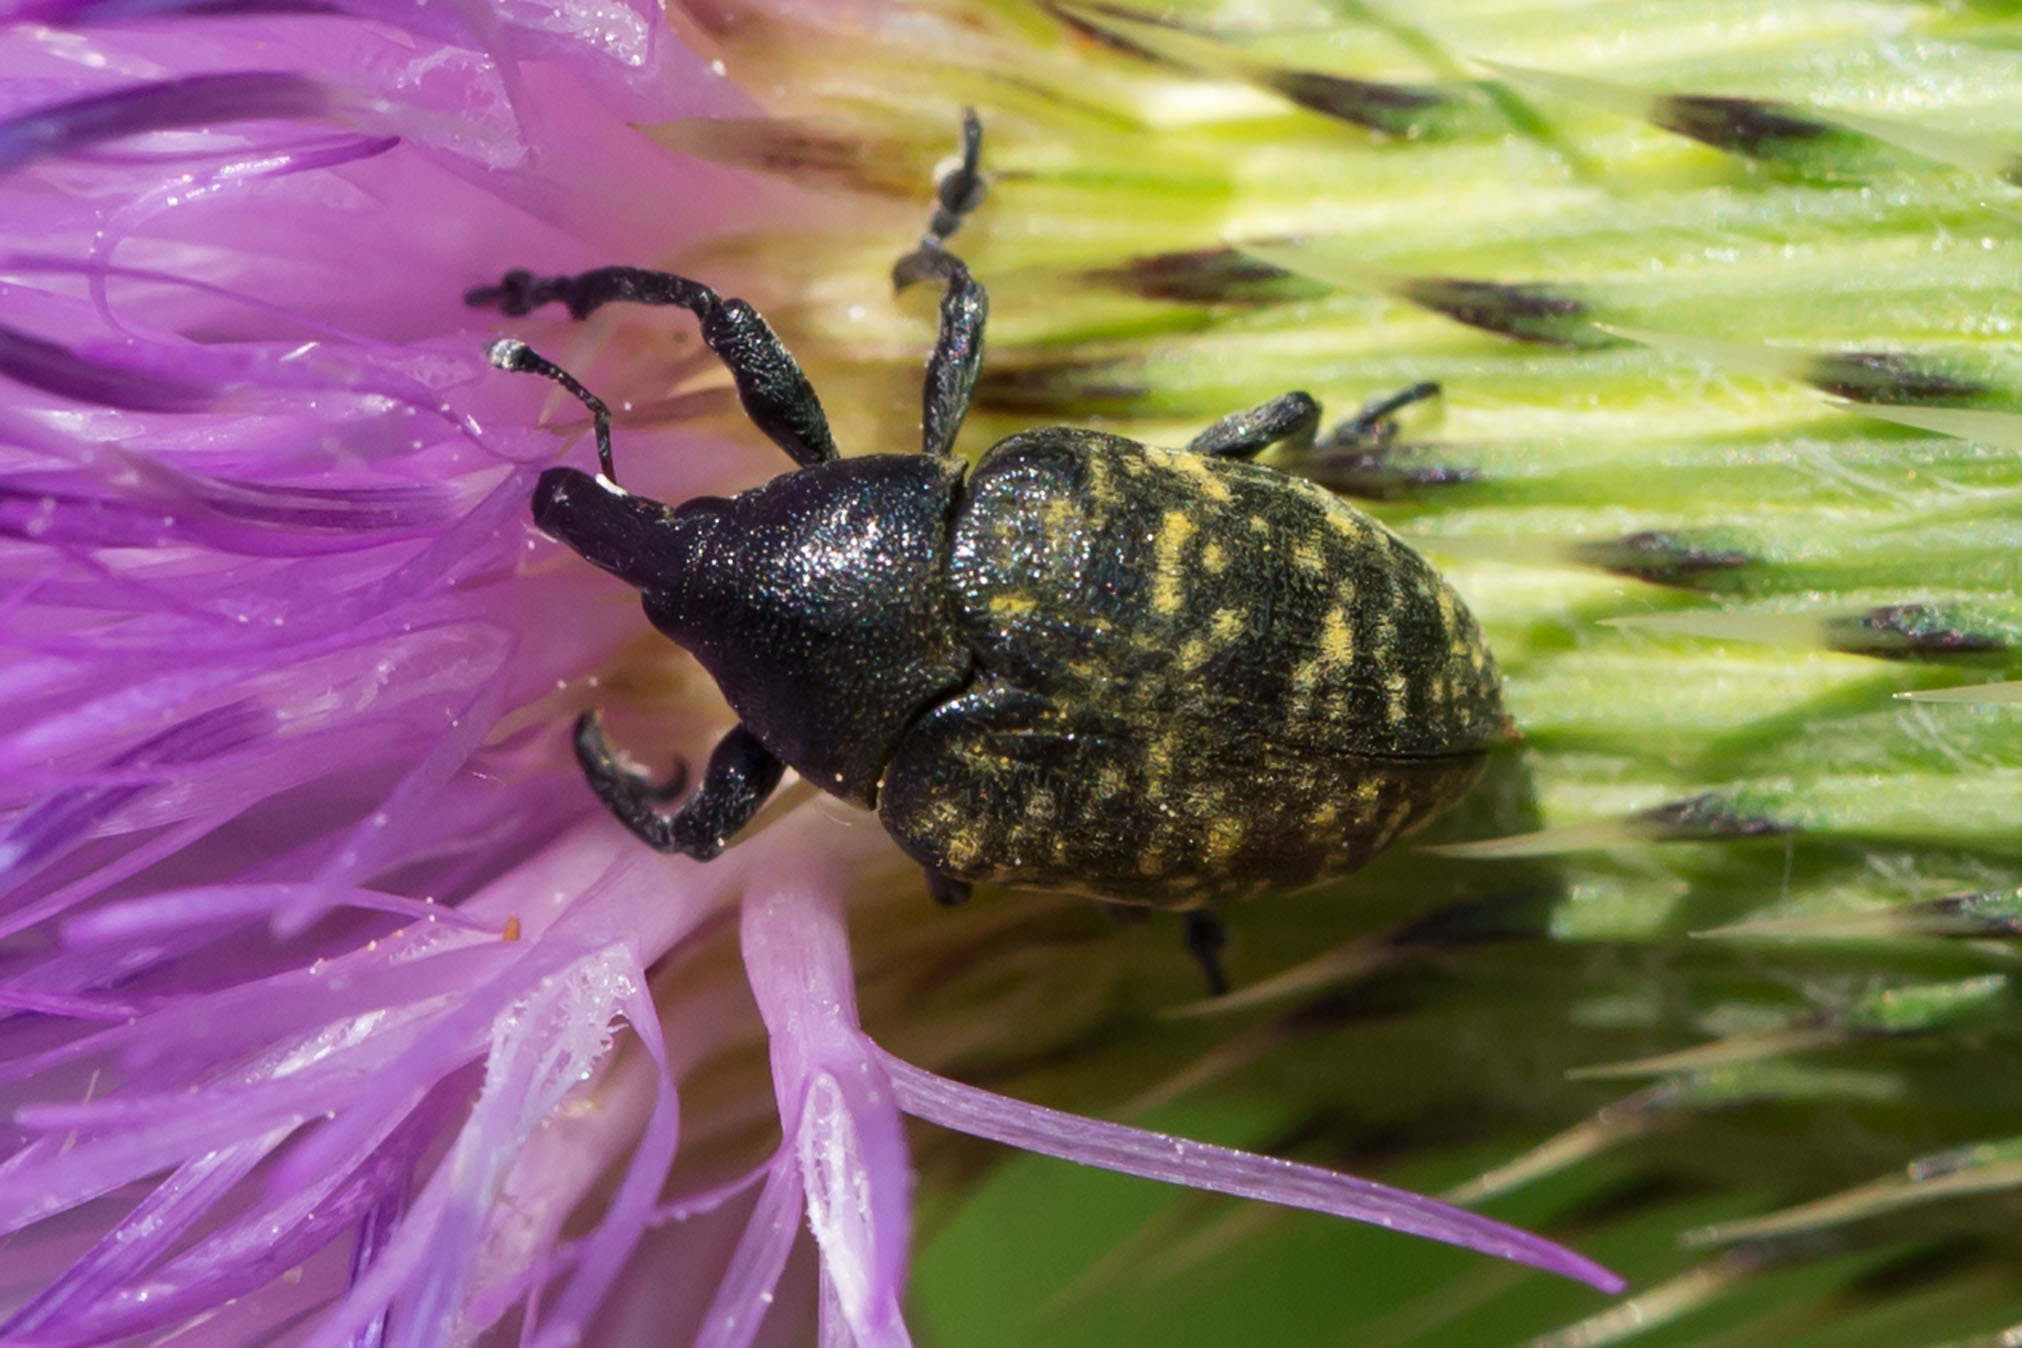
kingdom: Animalia
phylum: Arthropoda
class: Insecta
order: Coleoptera
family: Curculionidae
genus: Larinus
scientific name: Larinus turbinatus
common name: Weevil
